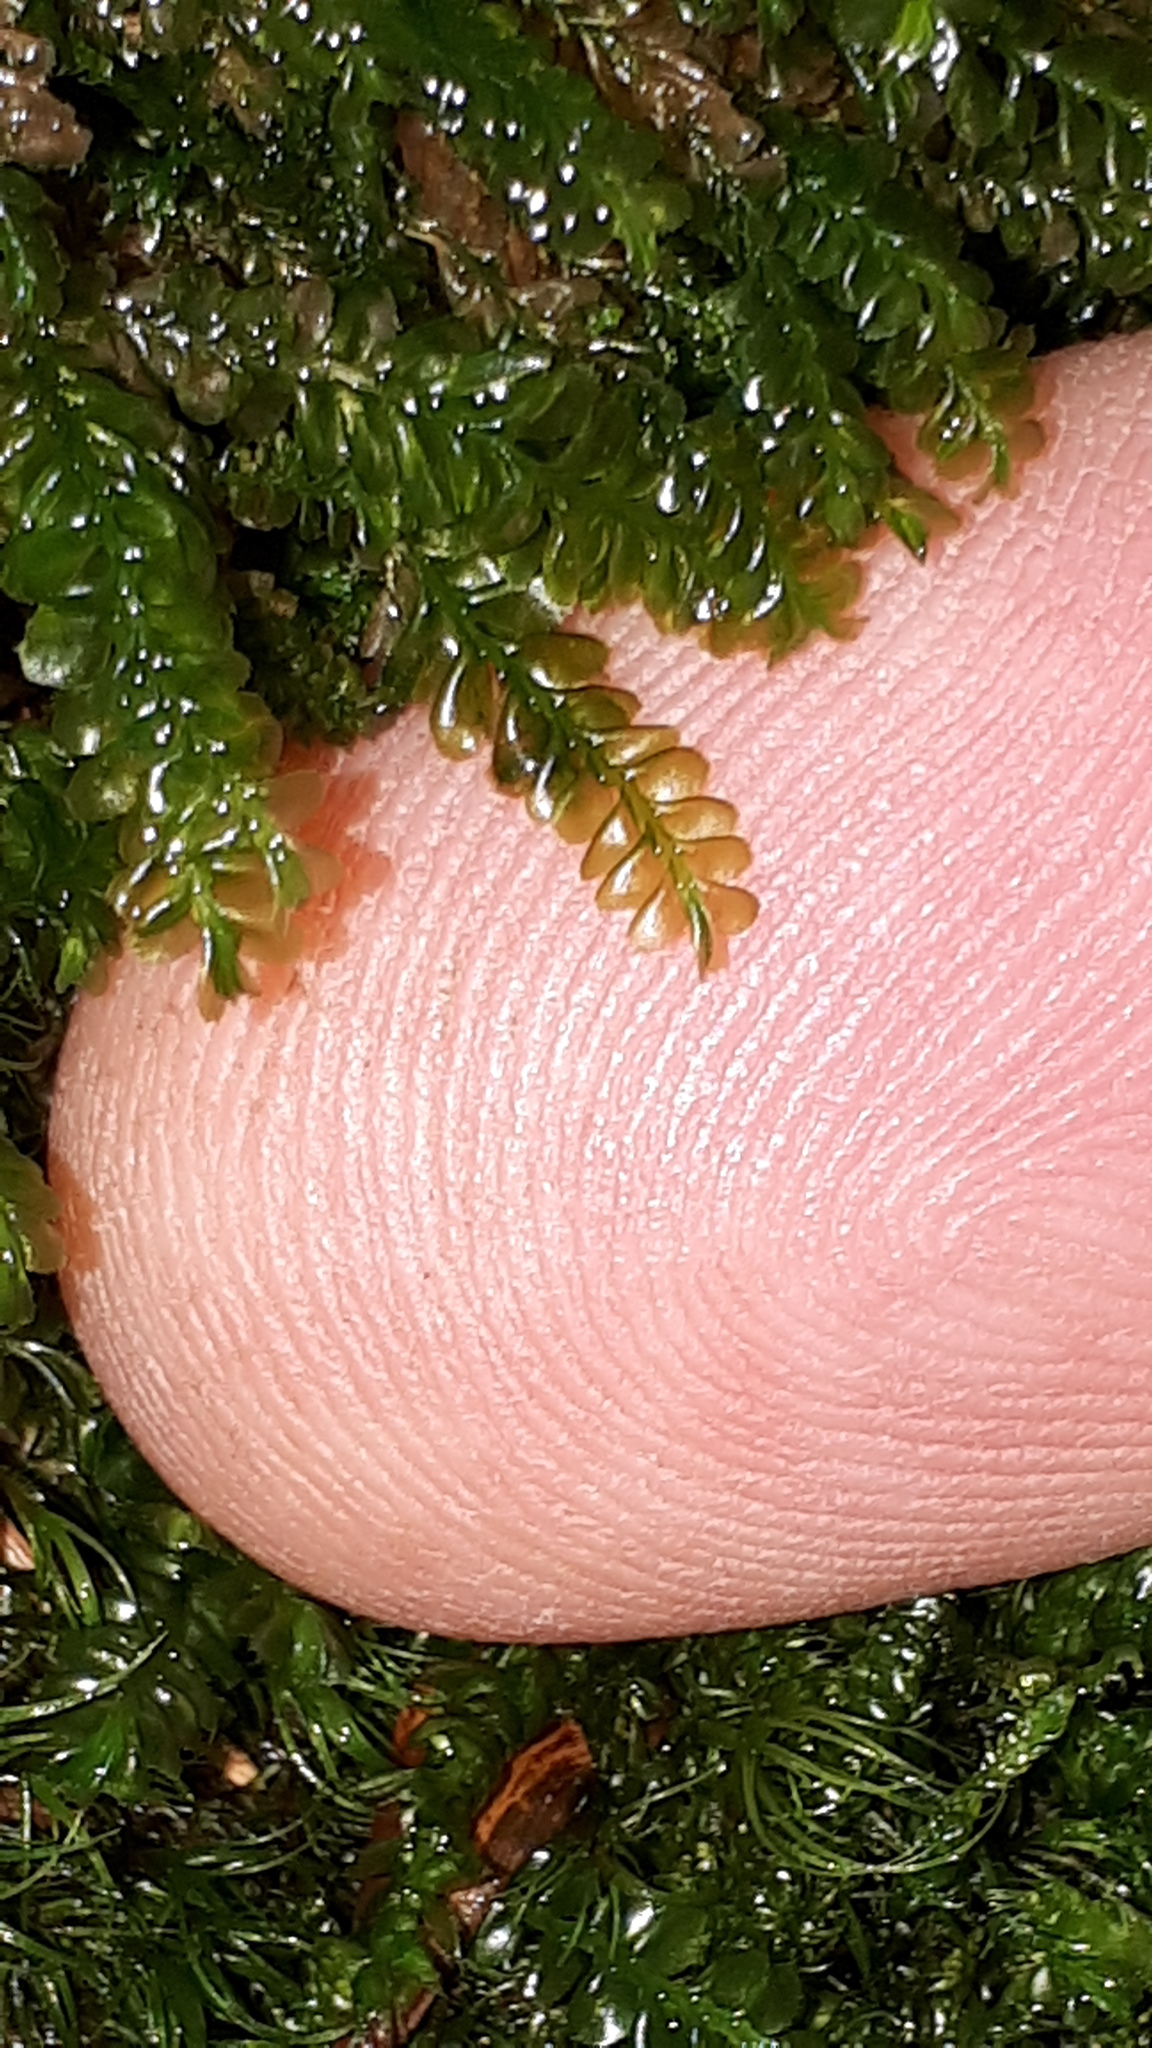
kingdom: Plantae
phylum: Marchantiophyta
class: Jungermanniopsida
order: Jungermanniales
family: Plagiochilaceae
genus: Plagiochila
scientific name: Plagiochila porelloides
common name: Lesser featherwort
